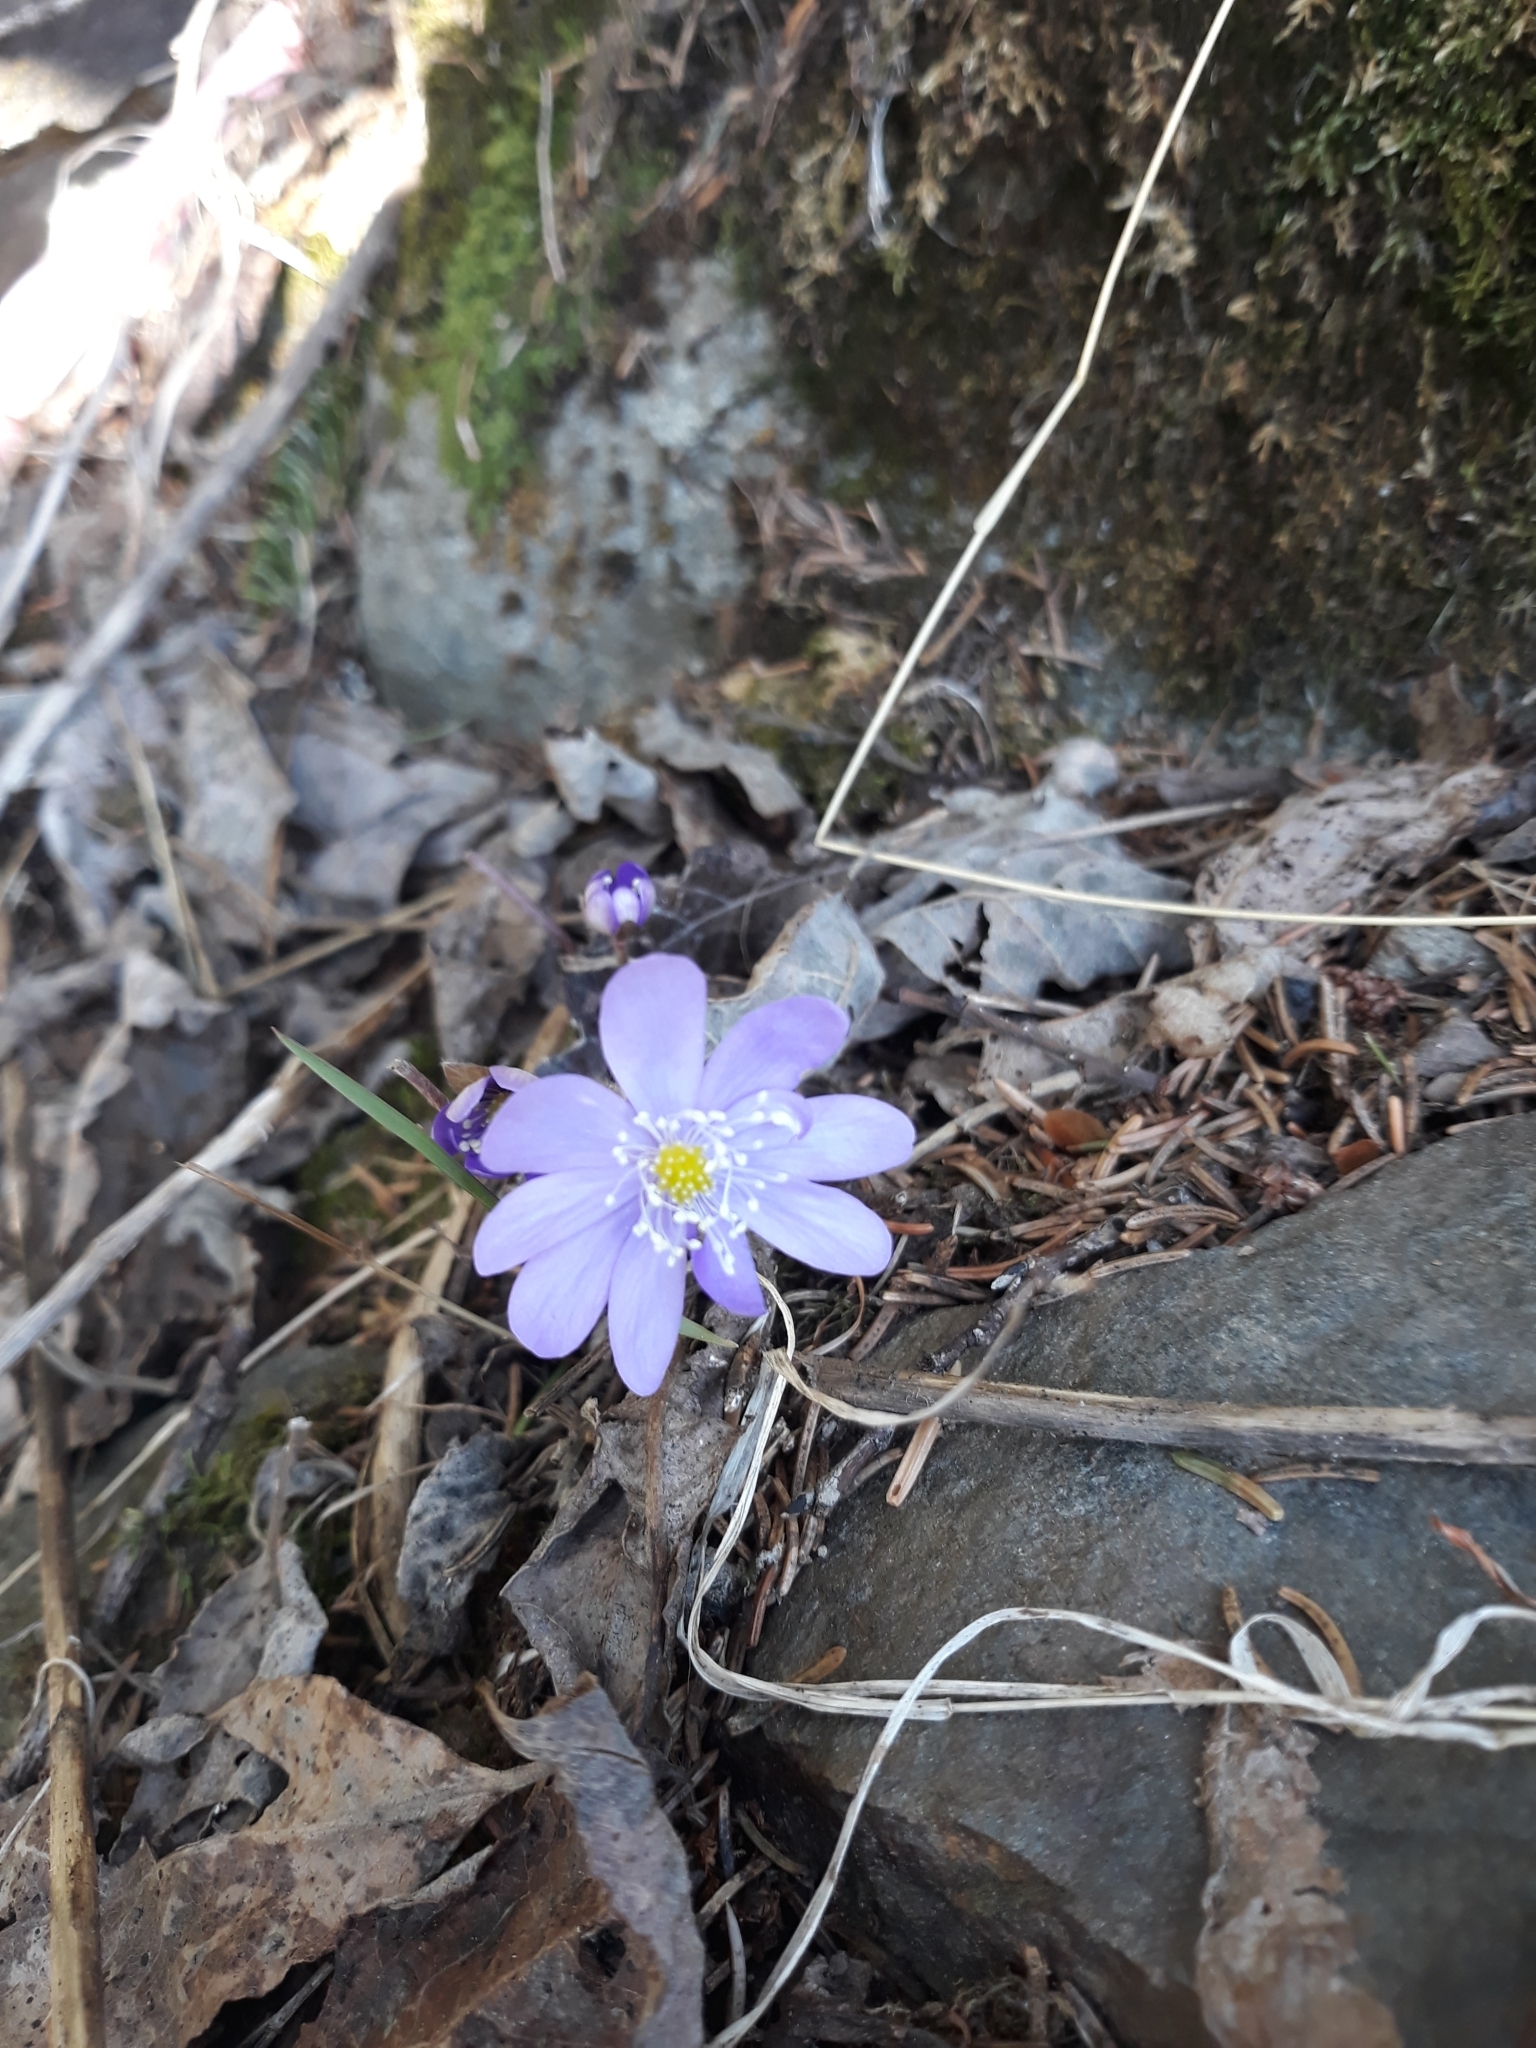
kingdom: Plantae
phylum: Tracheophyta
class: Magnoliopsida
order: Ranunculales
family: Ranunculaceae
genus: Hepatica
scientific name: Hepatica nobilis
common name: Liverleaf
